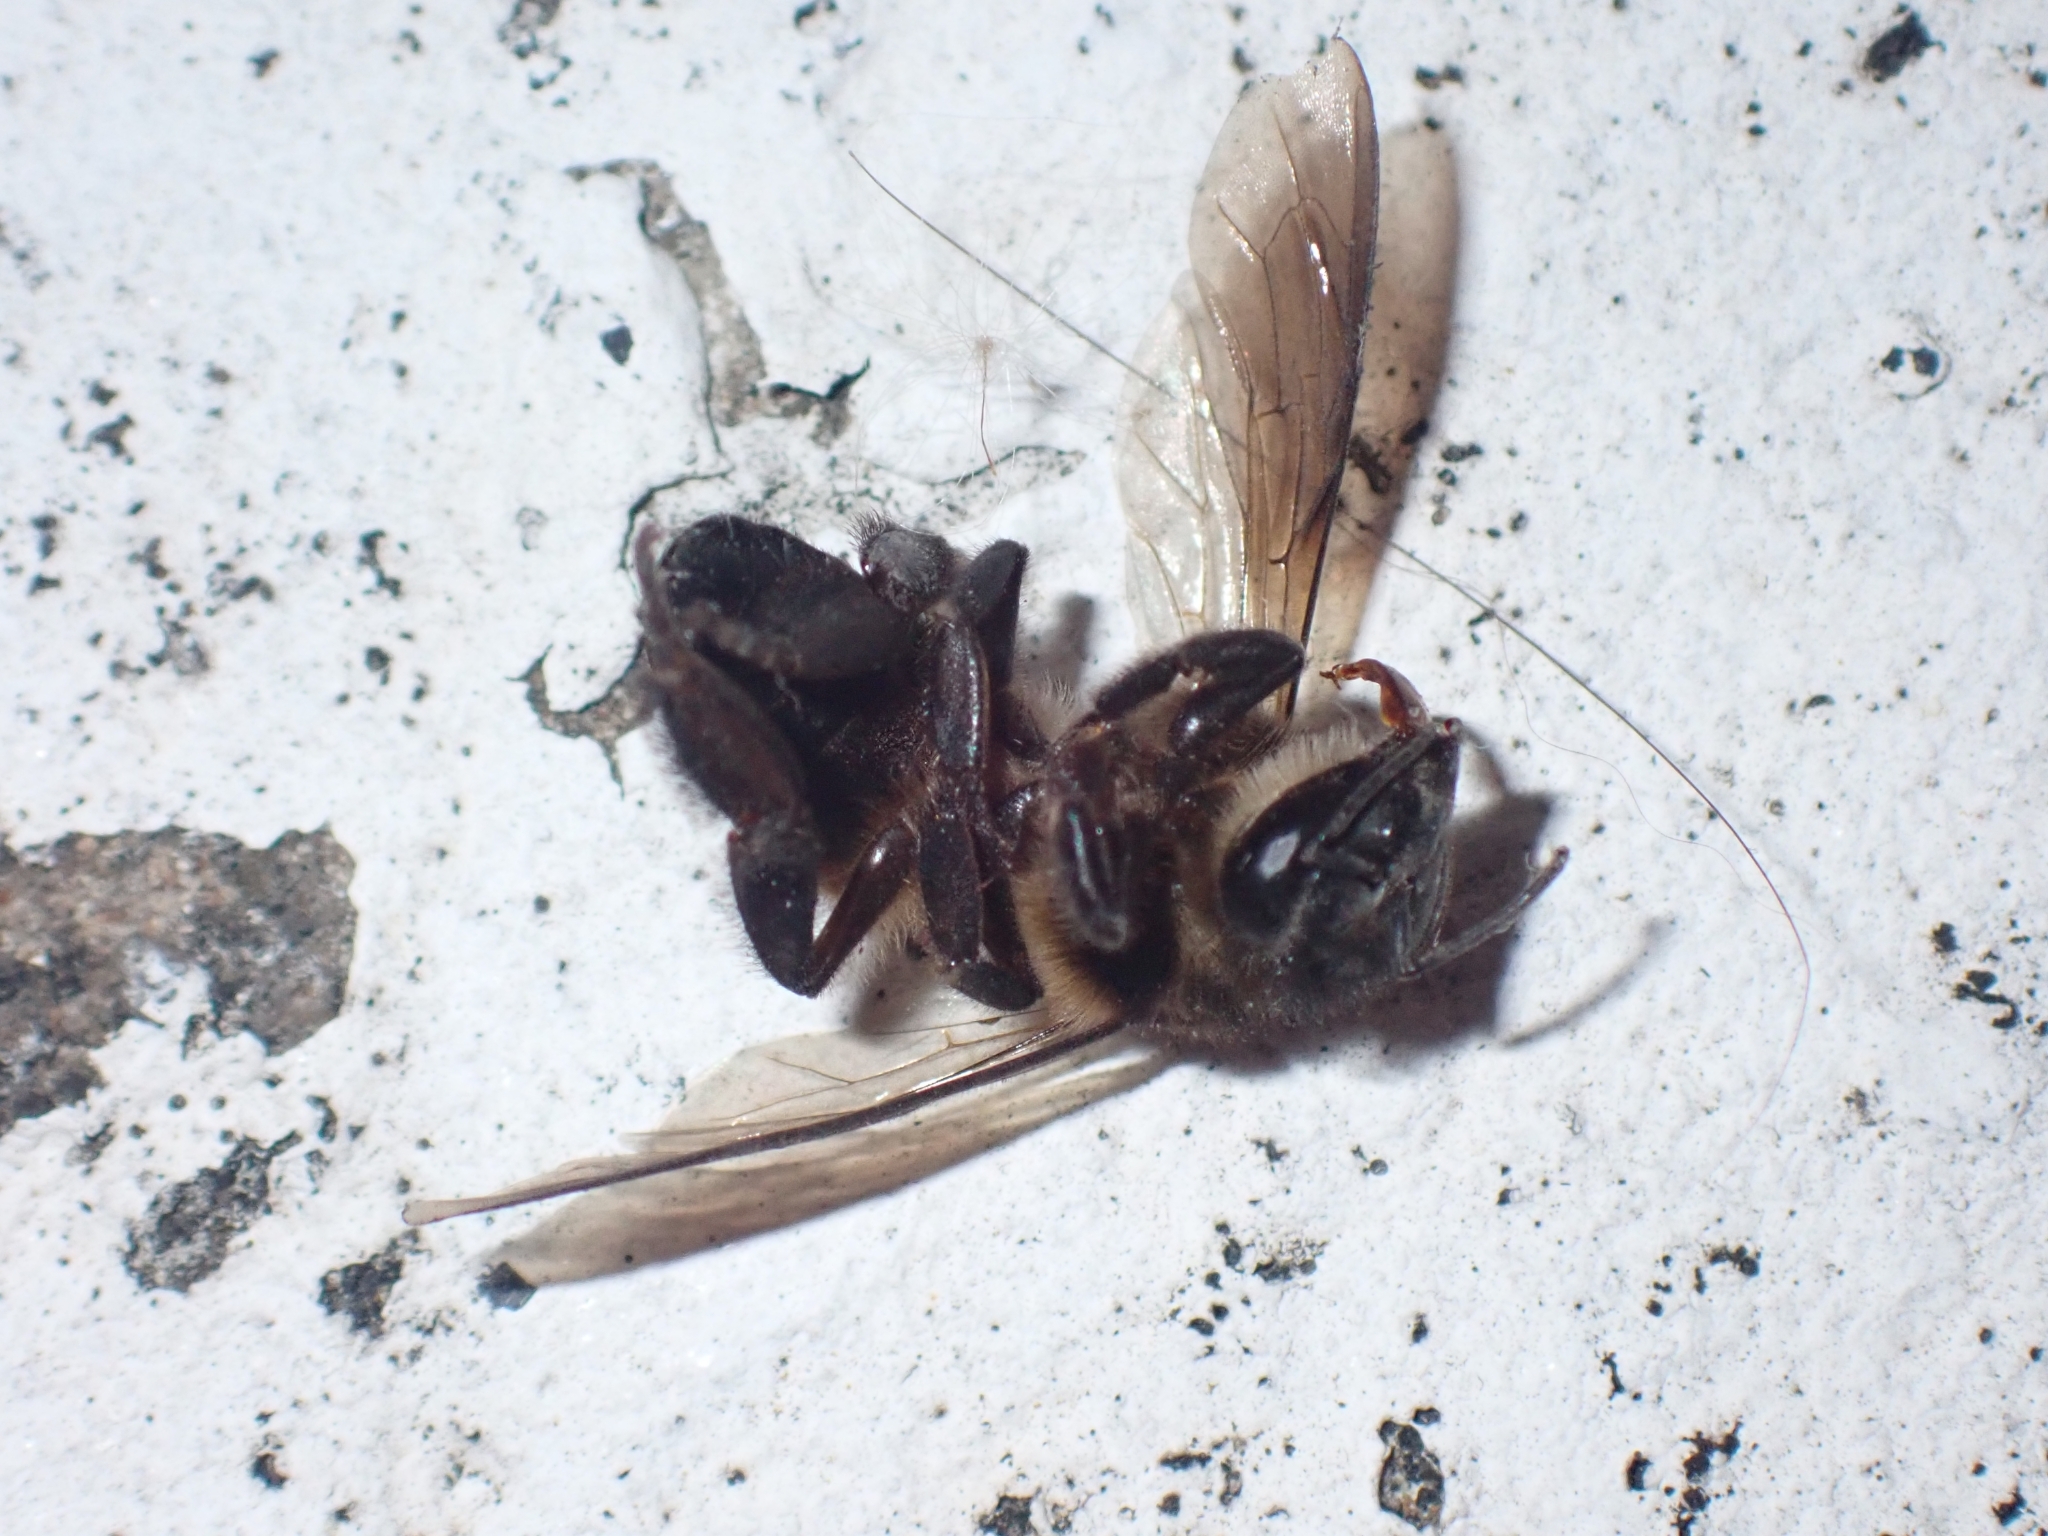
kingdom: Animalia
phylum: Arthropoda
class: Insecta
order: Hymenoptera
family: Apidae
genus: Apis
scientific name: Apis dorsata
